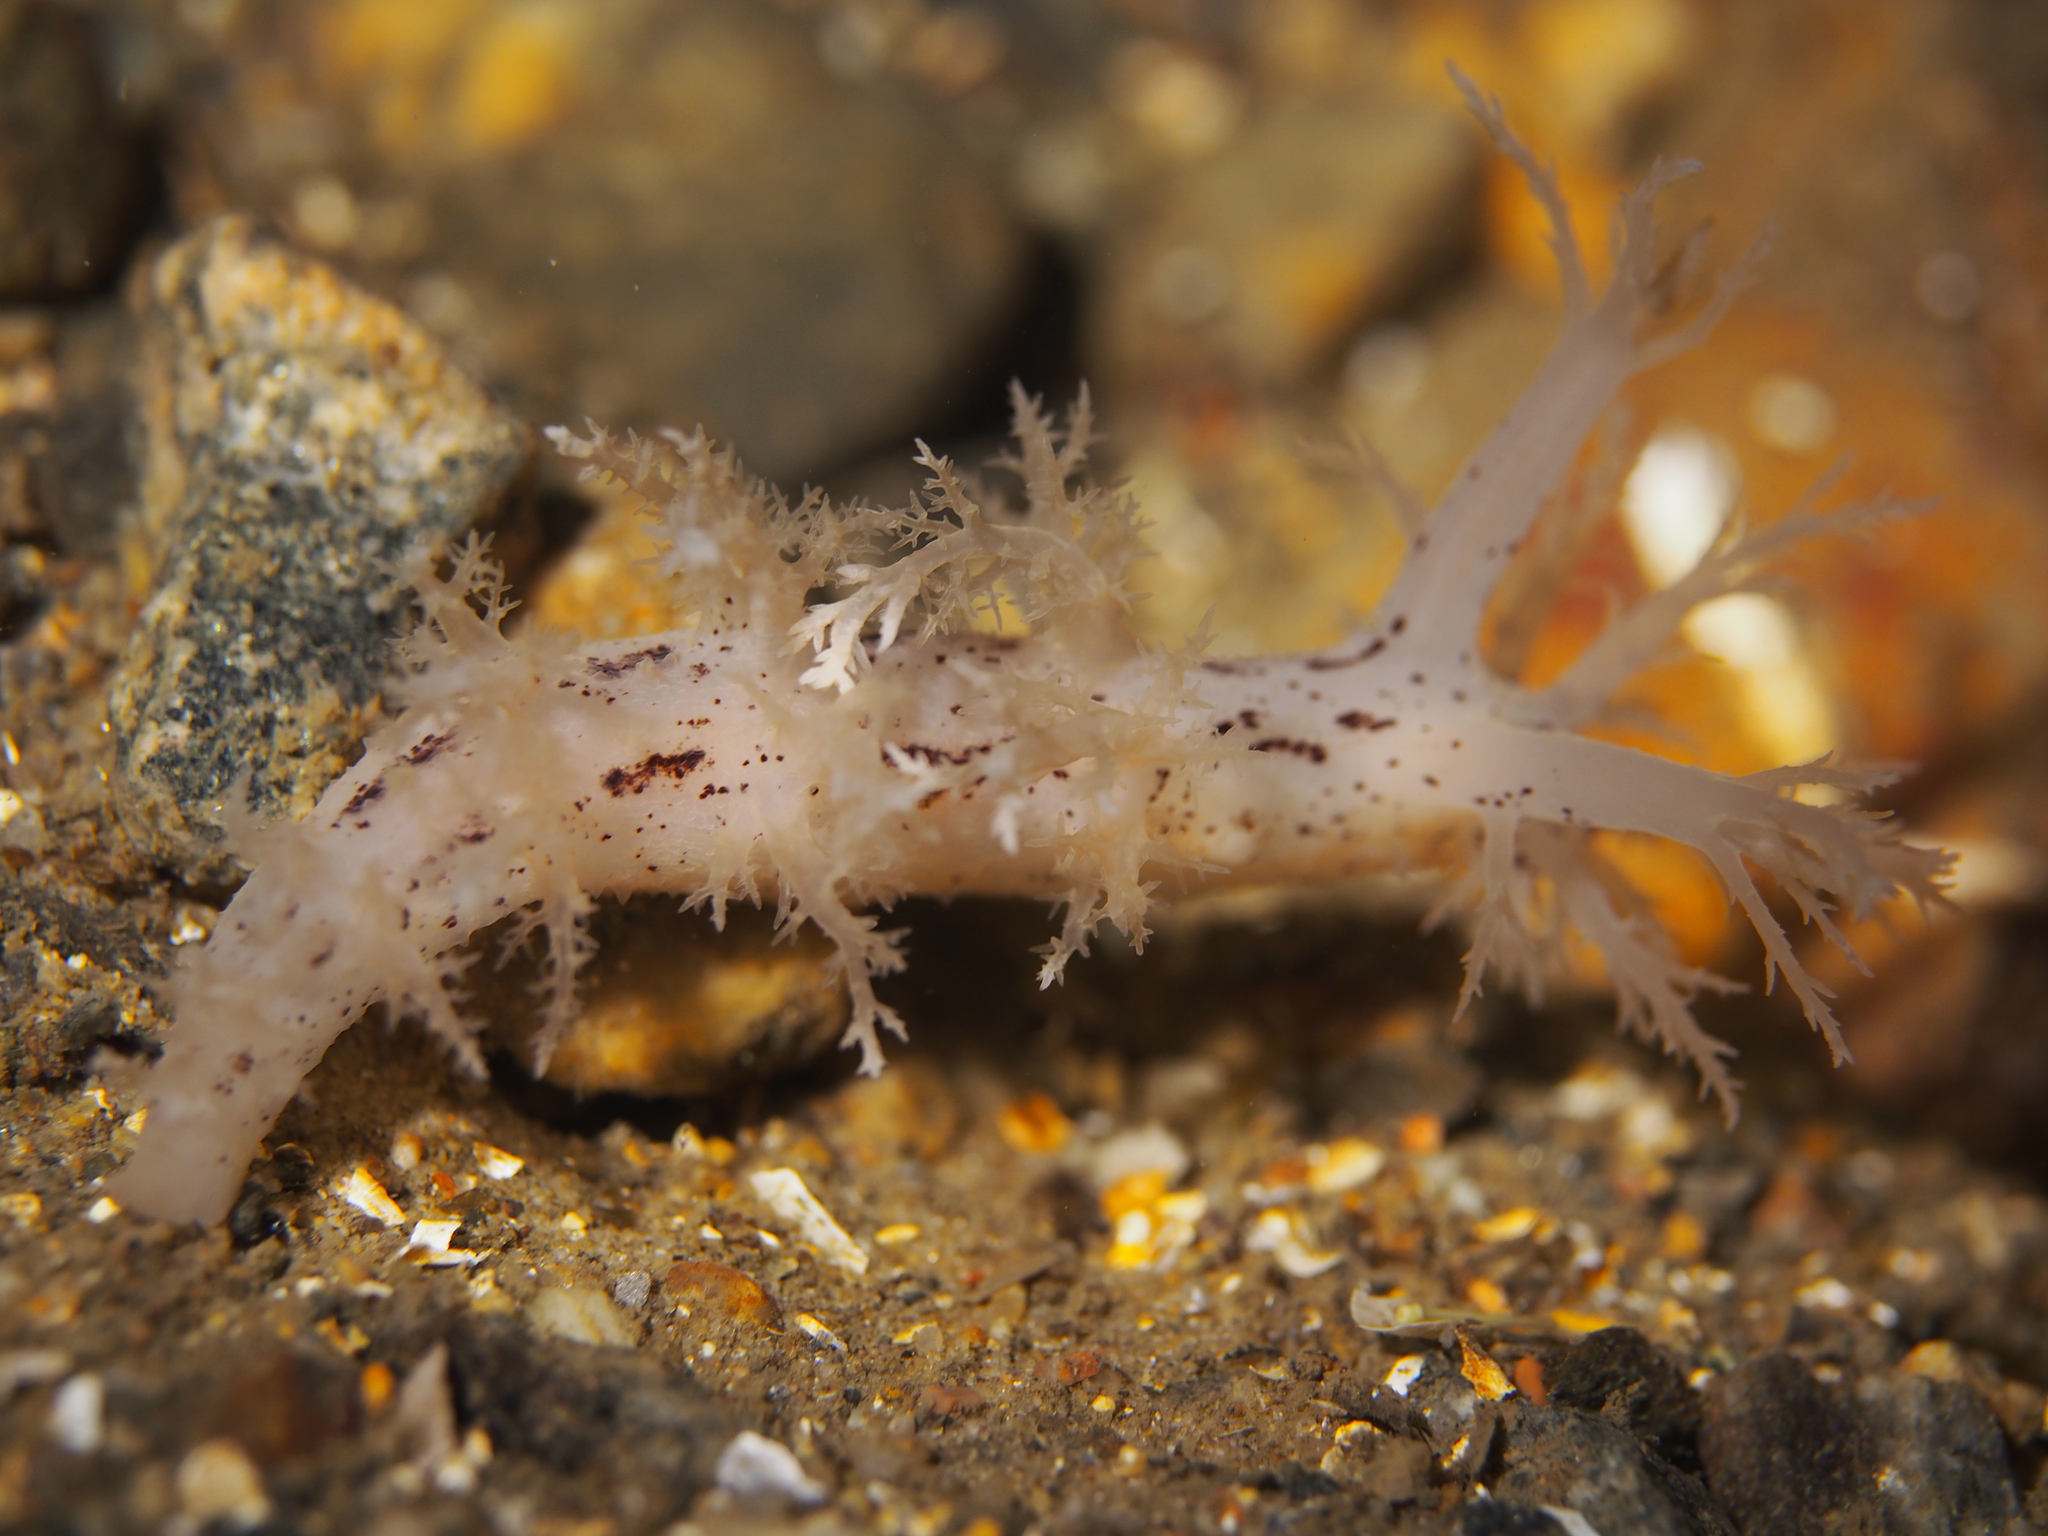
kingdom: Animalia
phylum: Mollusca
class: Gastropoda
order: Nudibranchia
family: Dendronotidae
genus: Dendronotus
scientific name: Dendronotus lacteus
